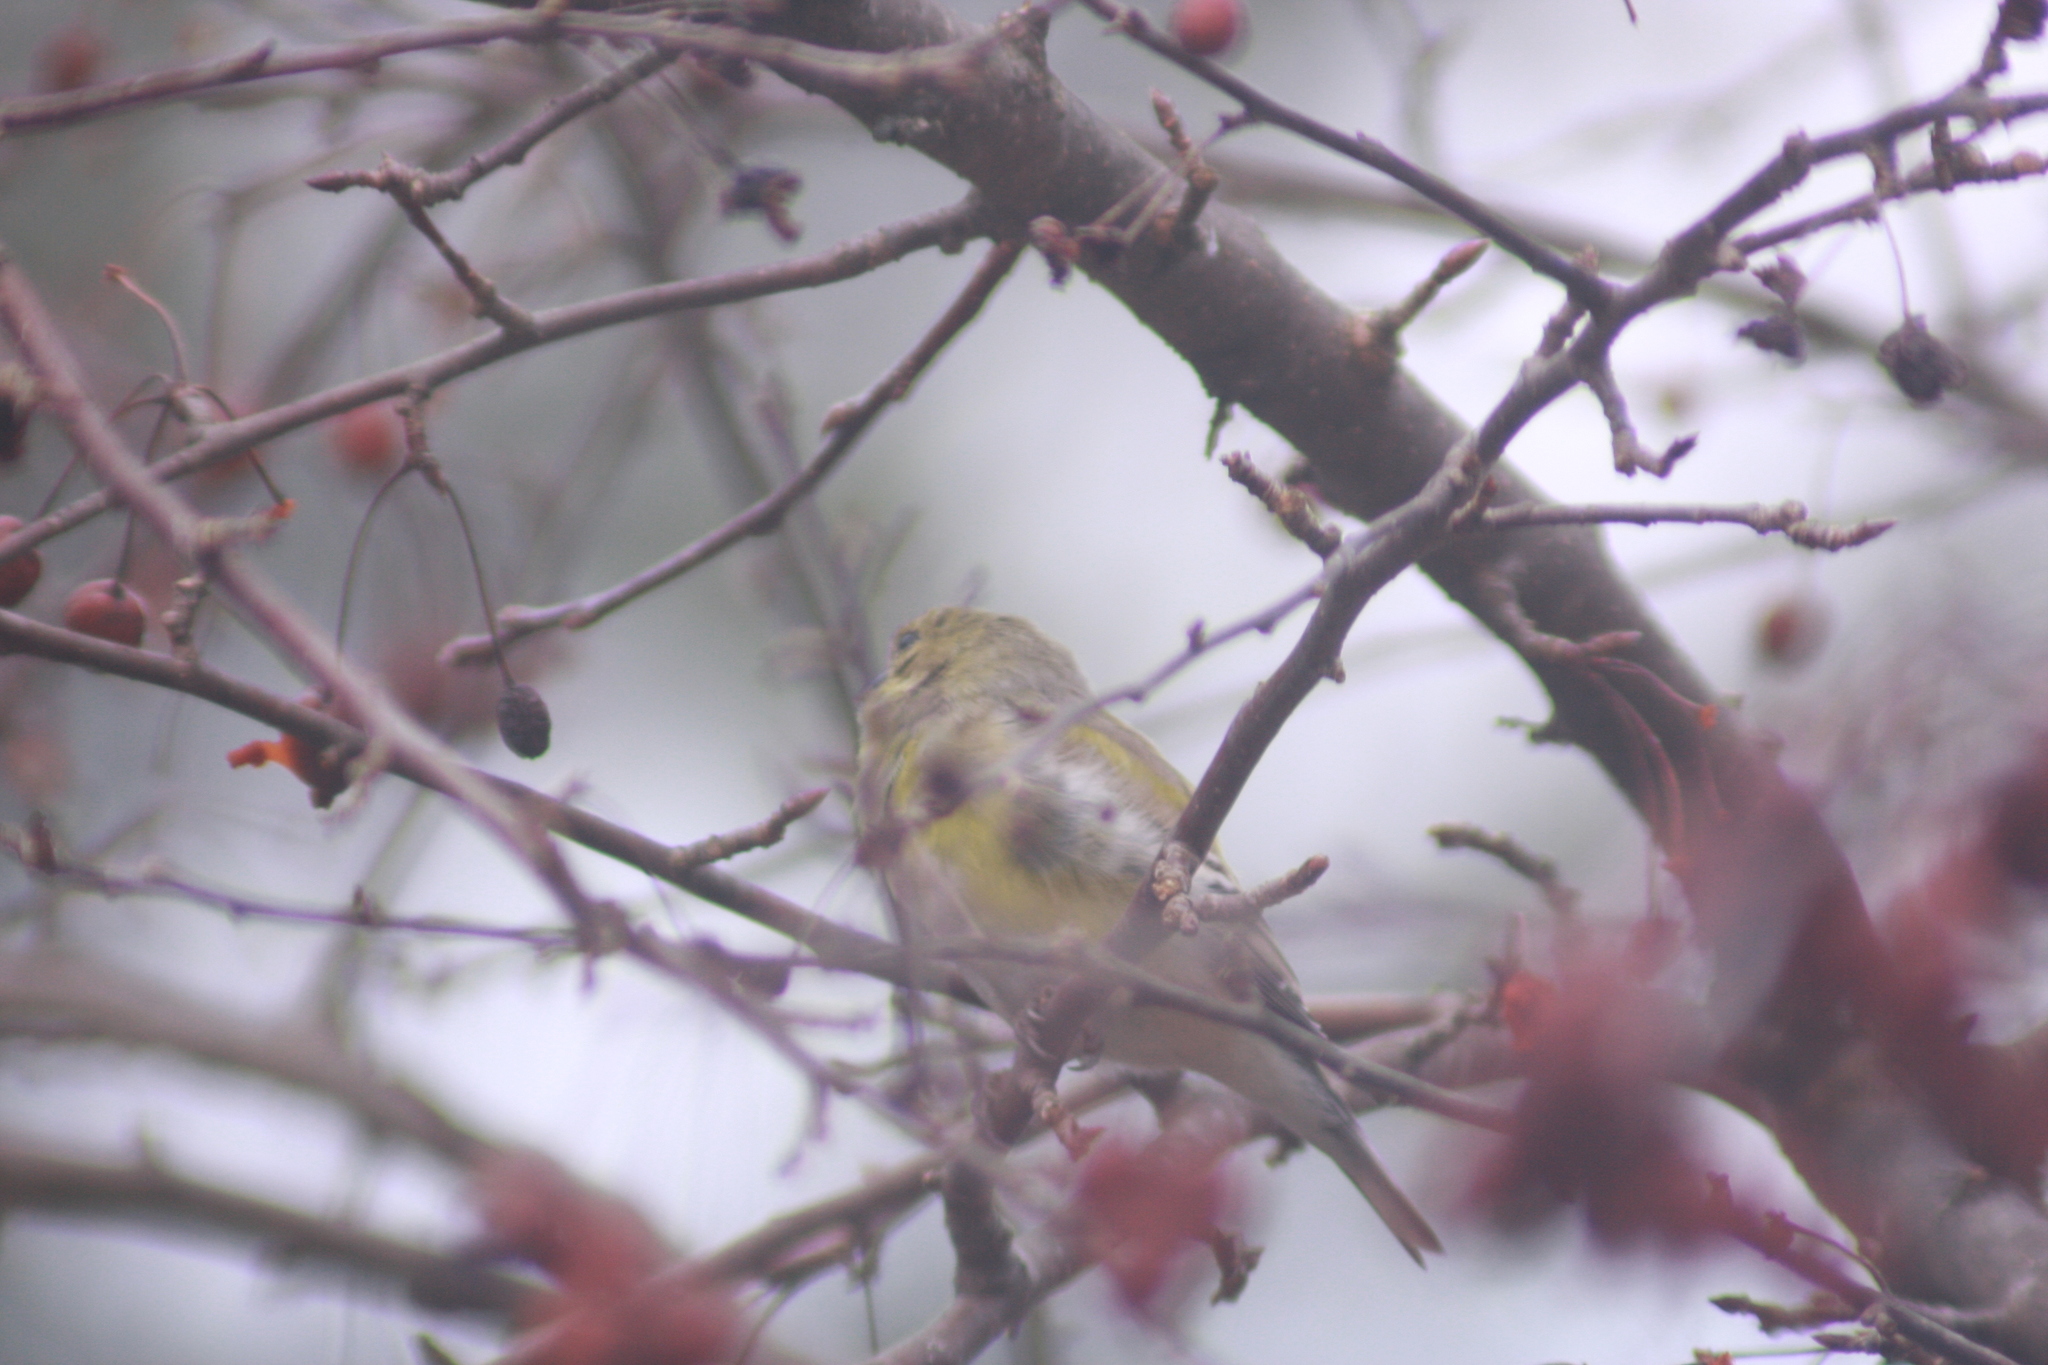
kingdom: Animalia
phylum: Chordata
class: Aves
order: Passeriformes
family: Fringillidae
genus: Spinus
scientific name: Spinus tristis
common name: American goldfinch
